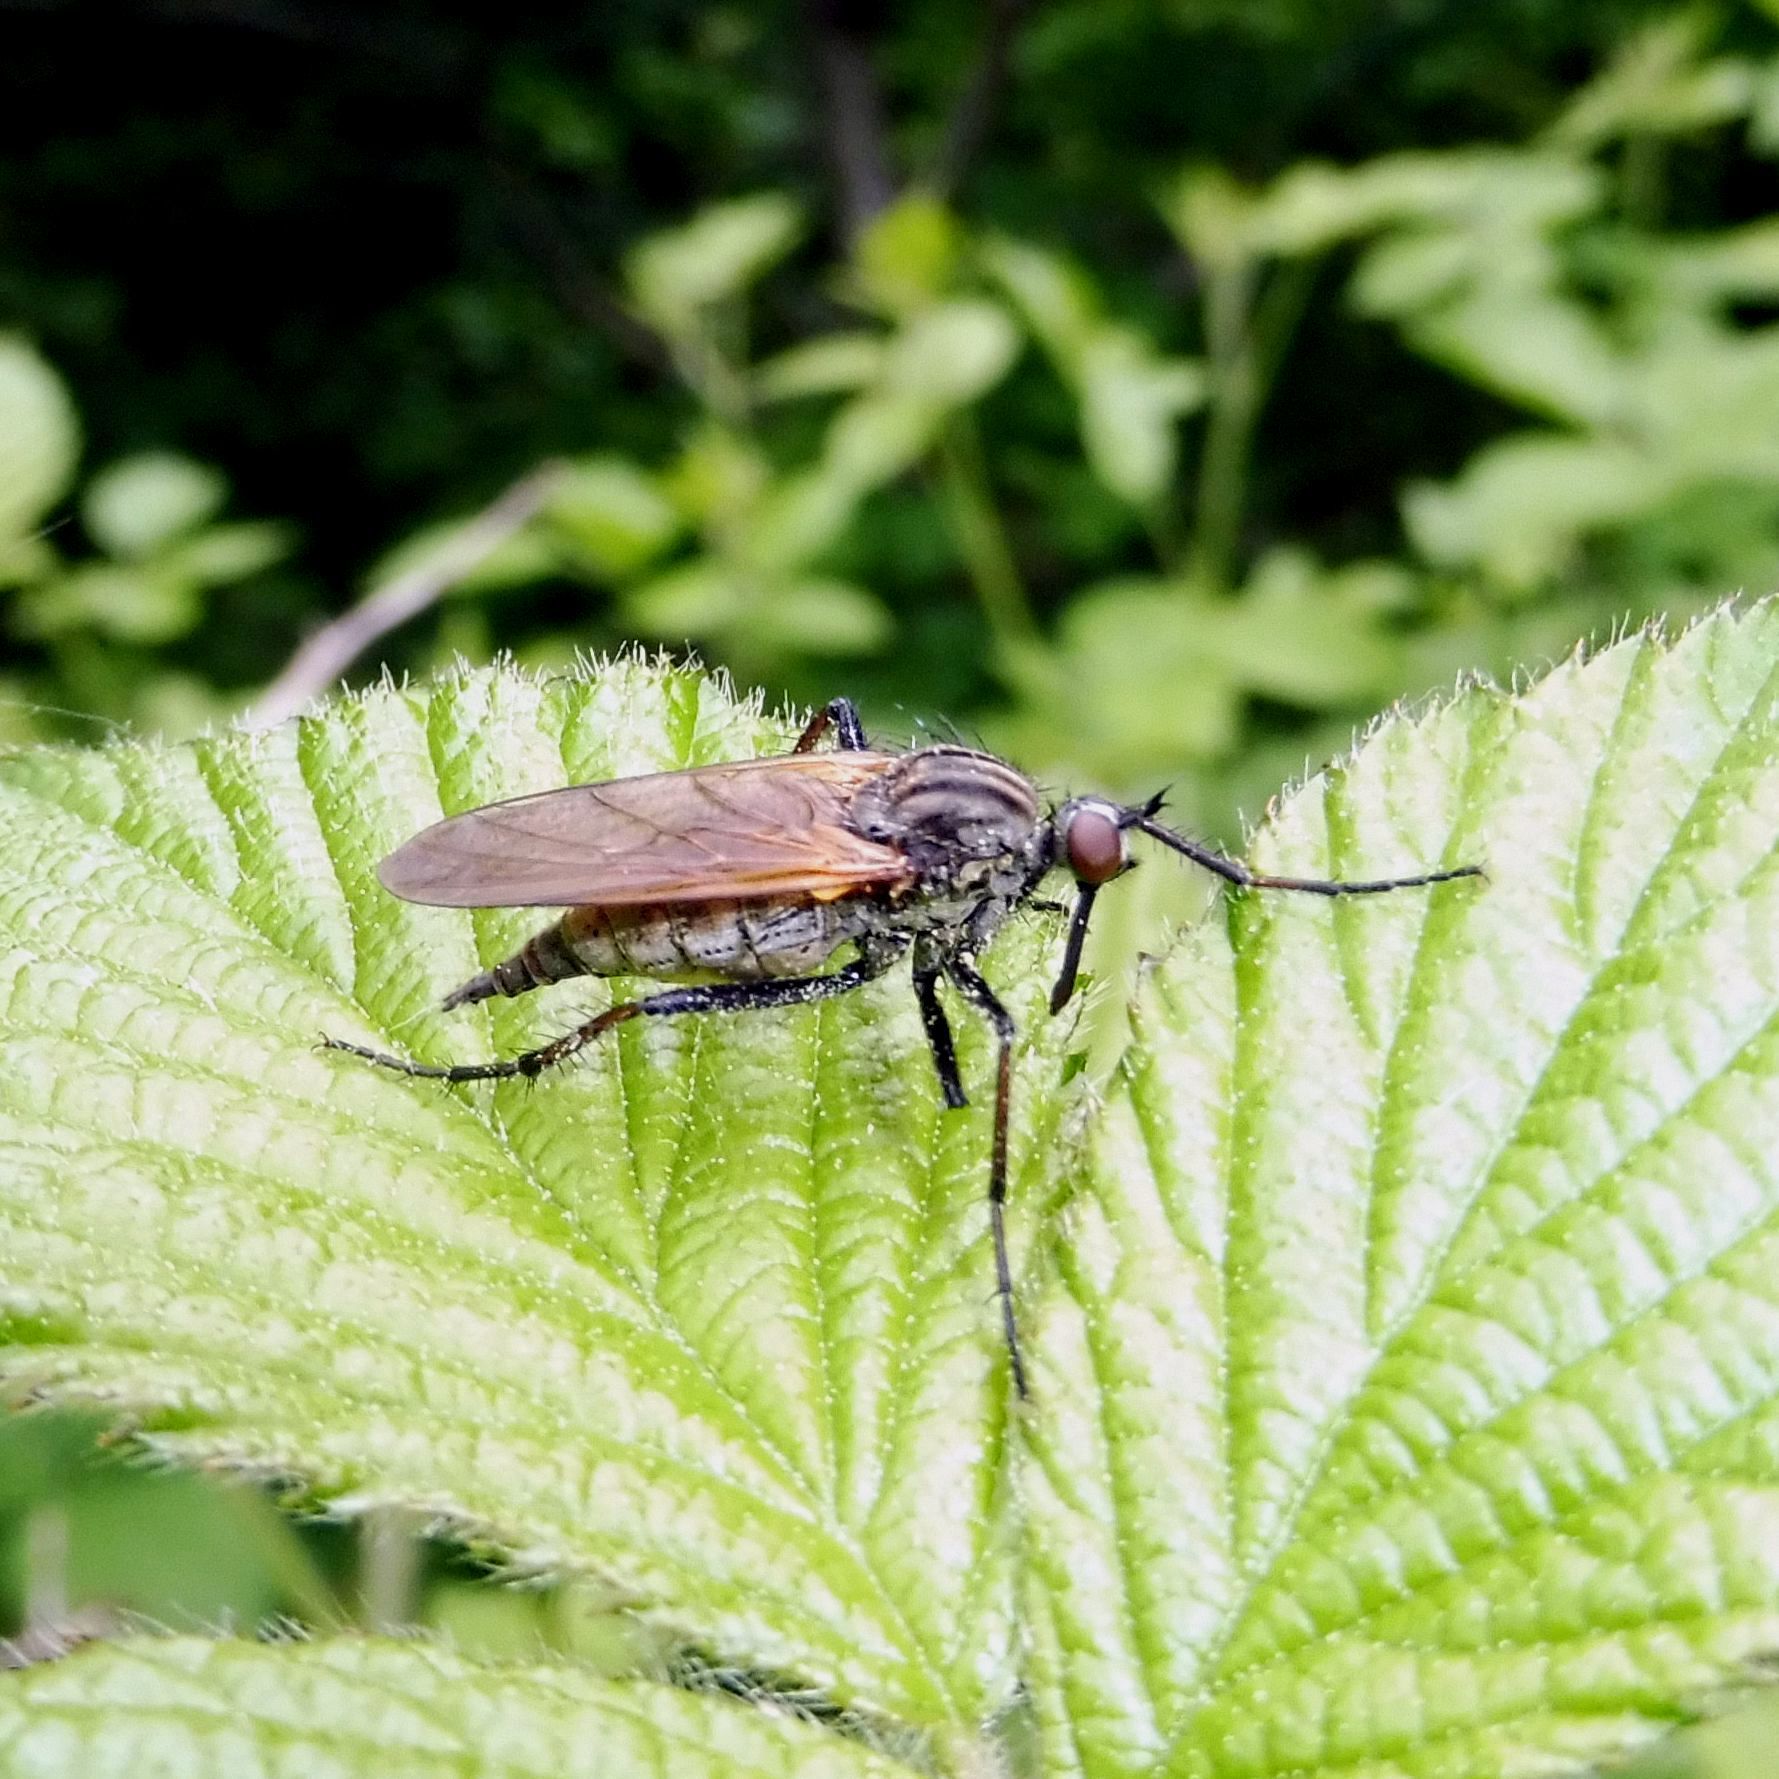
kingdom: Animalia
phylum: Arthropoda
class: Insecta
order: Diptera
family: Empididae
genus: Empis
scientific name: Empis tessellata
